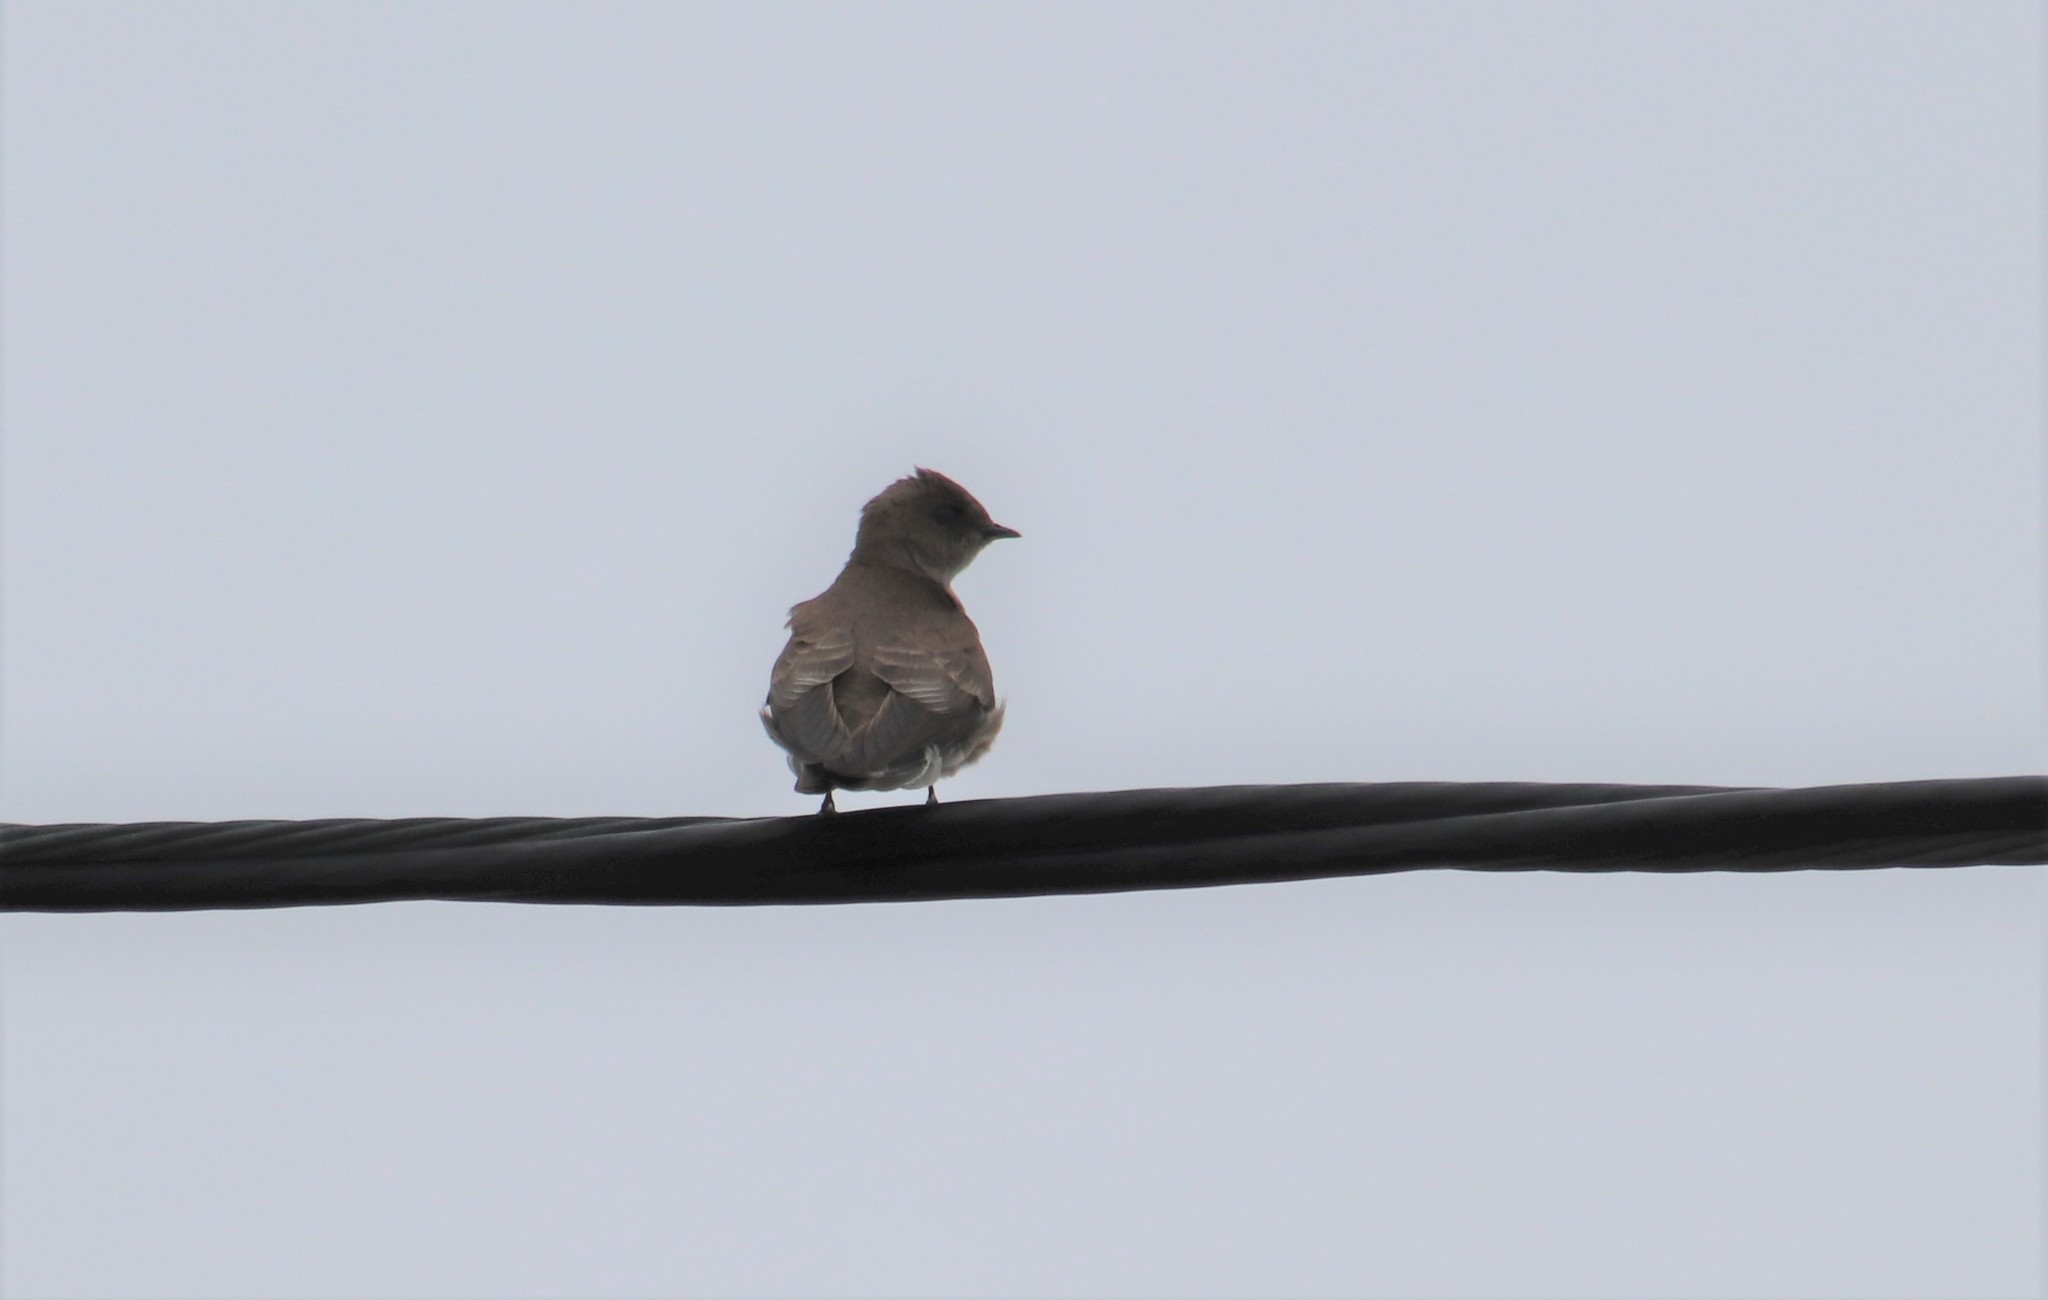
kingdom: Animalia
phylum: Chordata
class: Aves
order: Passeriformes
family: Hirundinidae
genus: Stelgidopteryx
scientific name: Stelgidopteryx serripennis
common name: Northern rough-winged swallow
